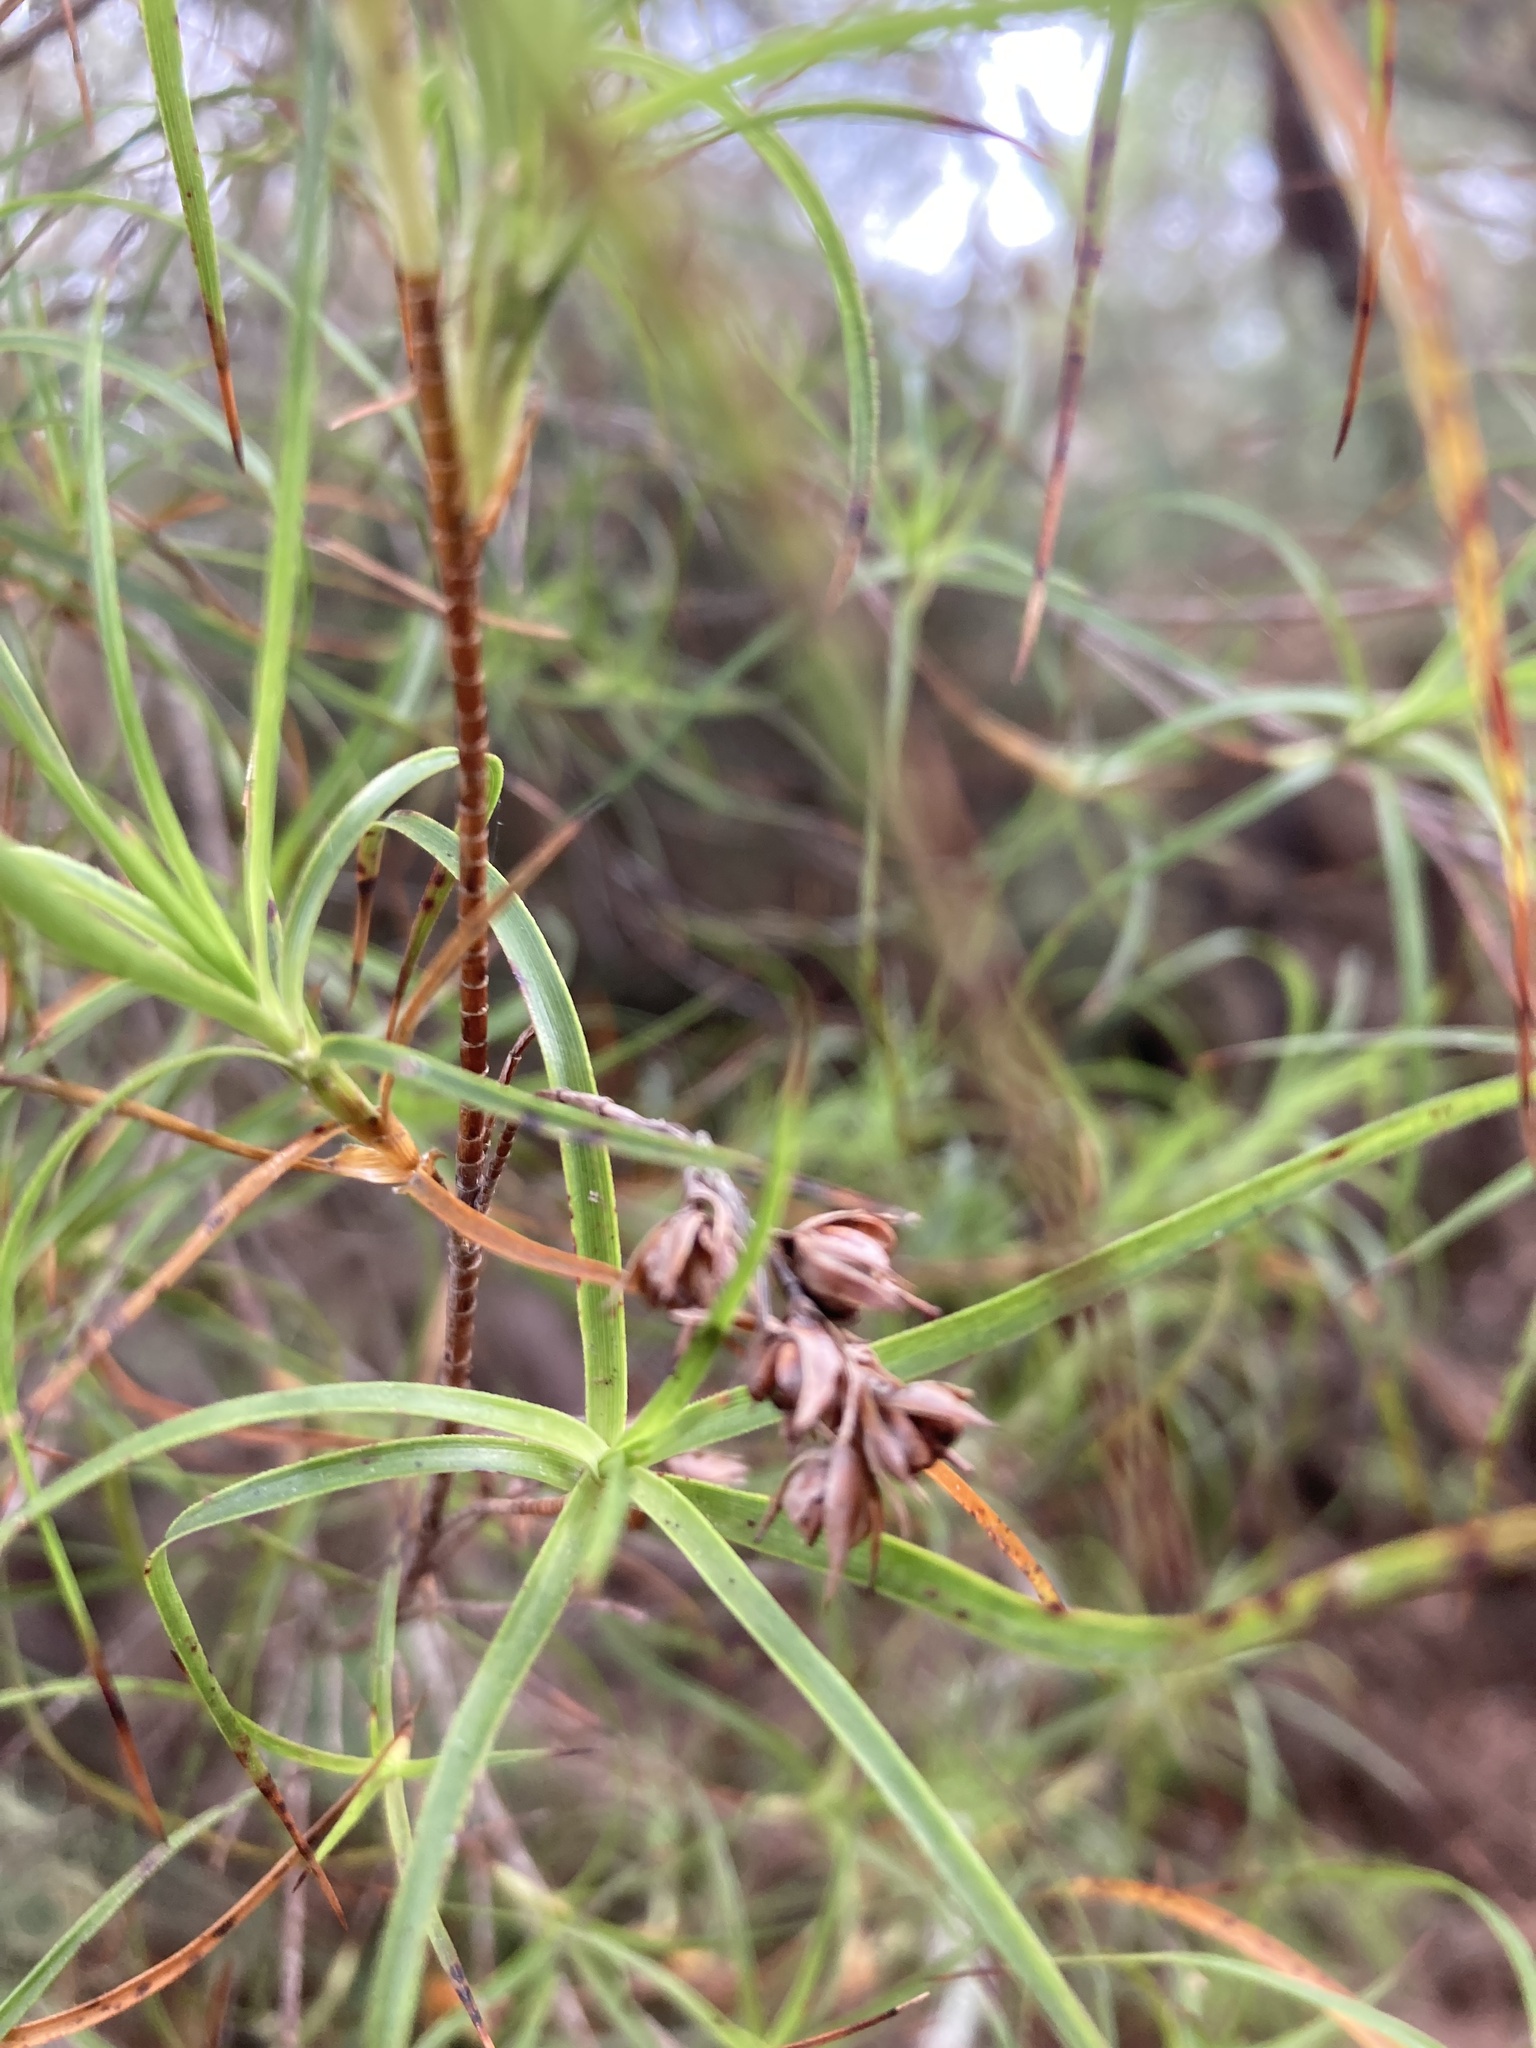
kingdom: Plantae
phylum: Tracheophyta
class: Magnoliopsida
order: Ericales
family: Ericaceae
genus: Dracophyllum
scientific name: Dracophyllum sinclairii
